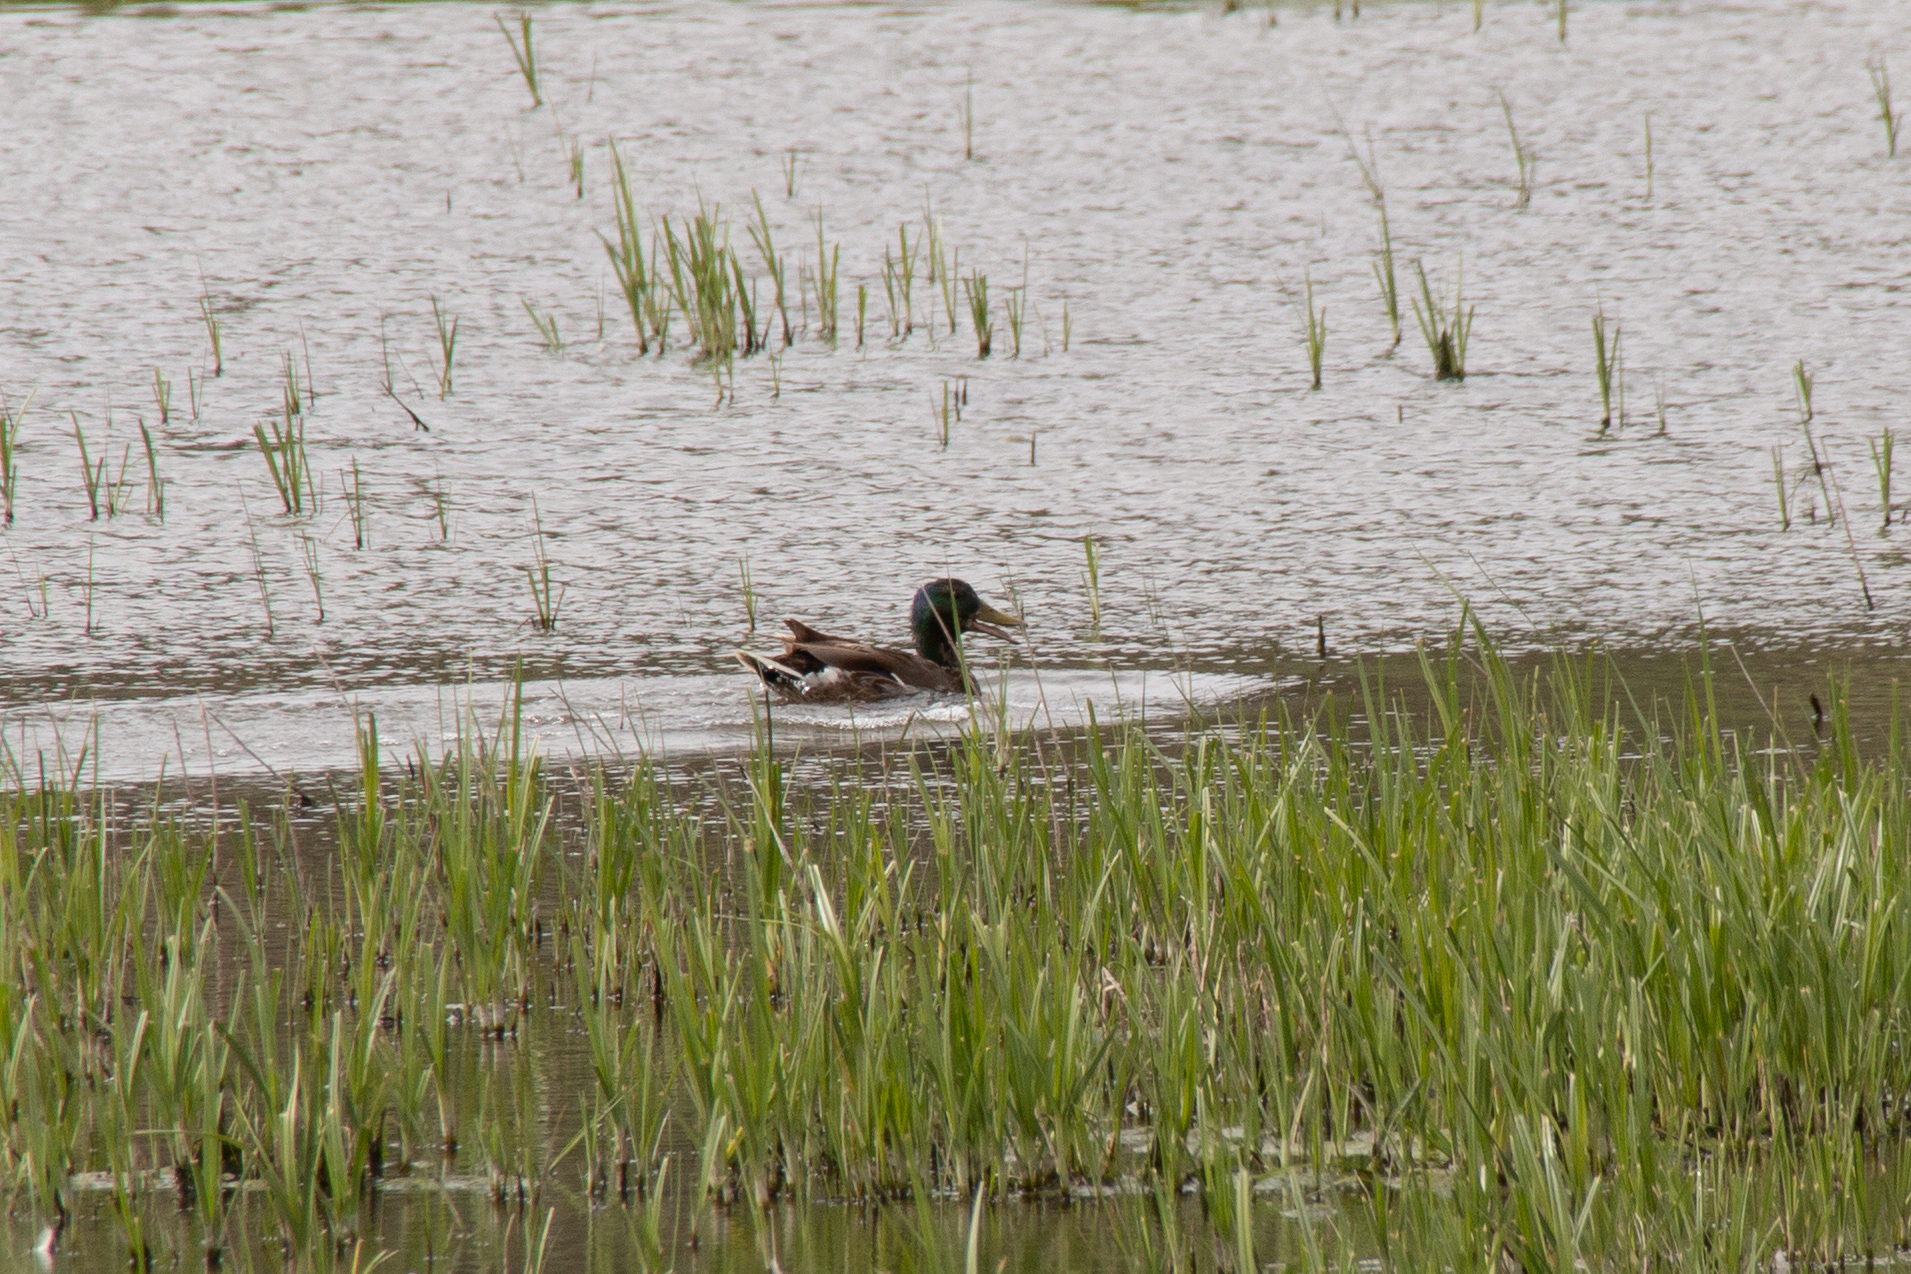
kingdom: Animalia
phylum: Chordata
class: Aves
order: Anseriformes
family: Anatidae
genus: Anas
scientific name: Anas platyrhynchos
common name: Mallard
